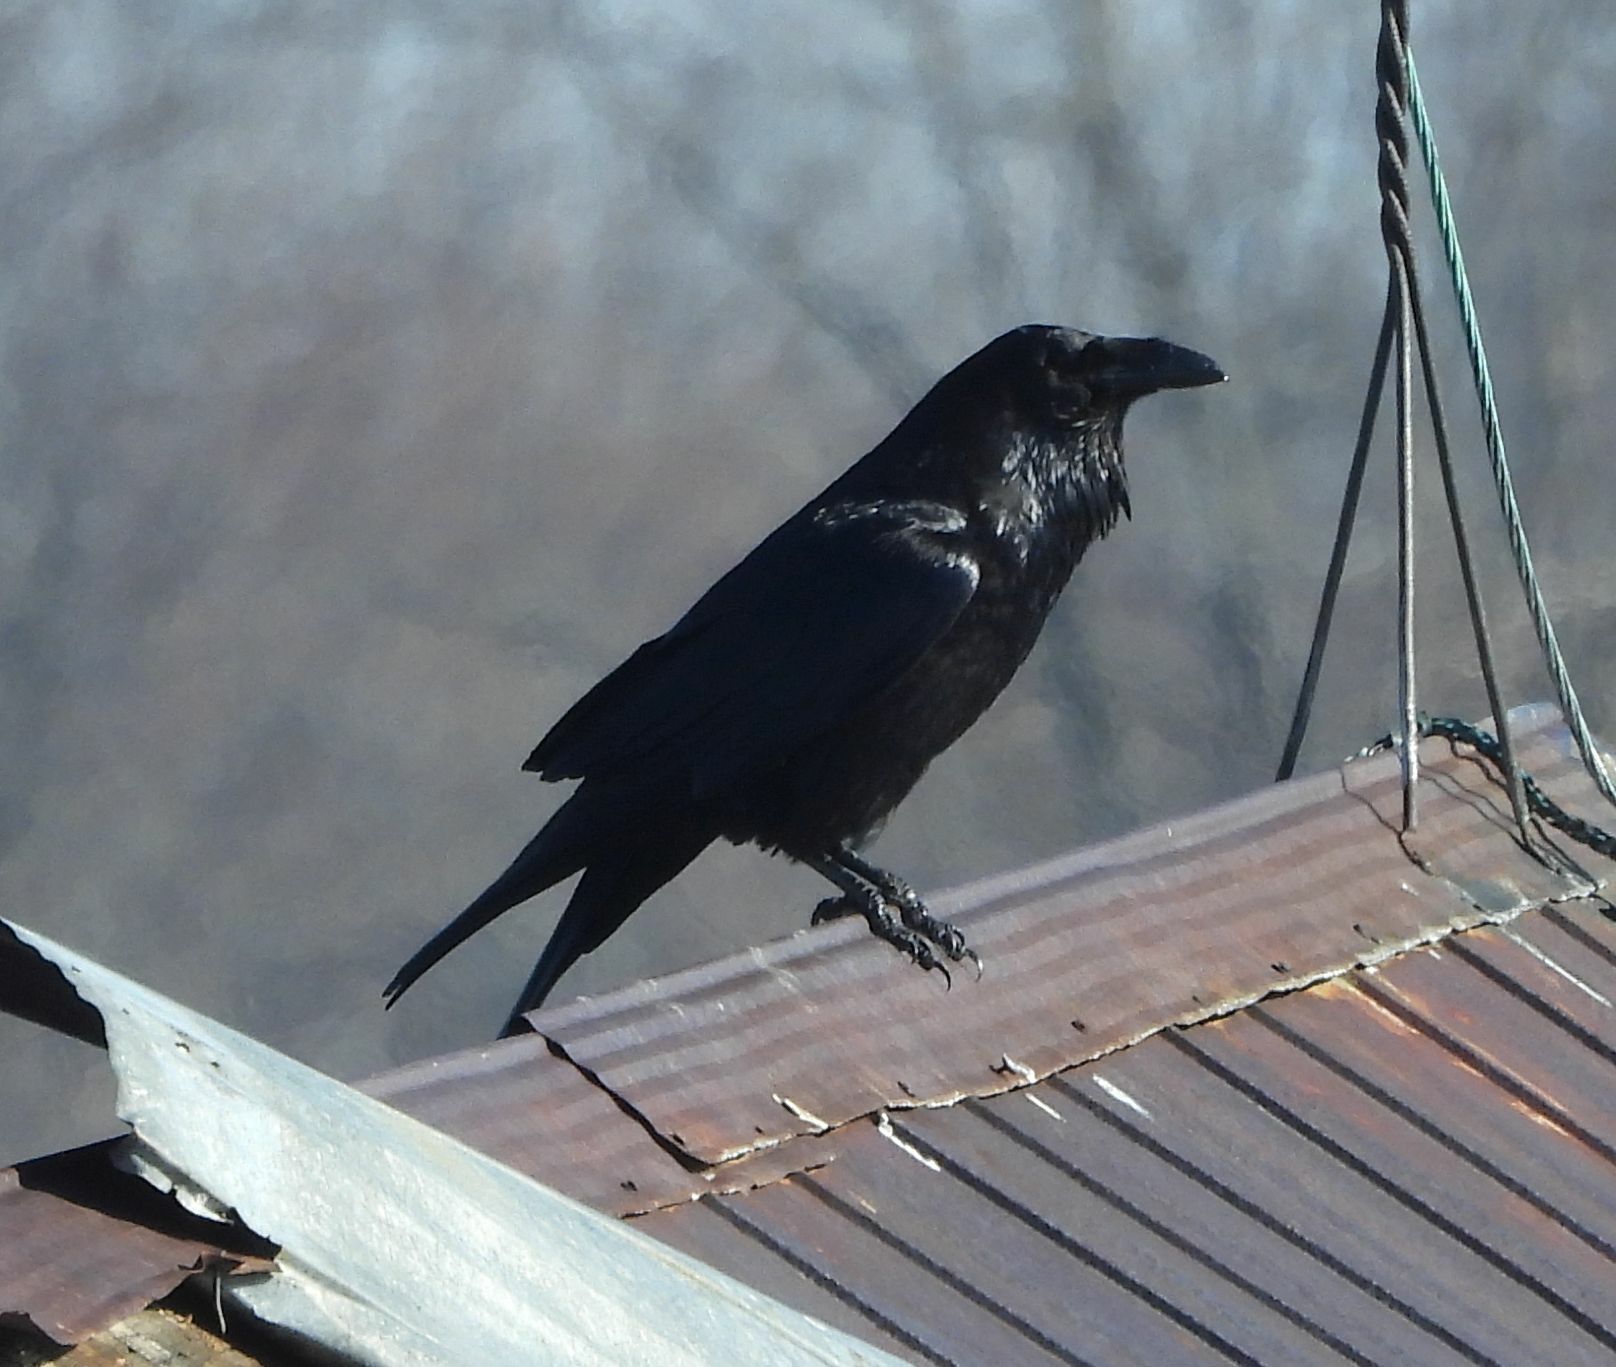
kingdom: Animalia
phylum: Chordata
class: Aves
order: Passeriformes
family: Corvidae
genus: Corvus
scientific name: Corvus corax
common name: Common raven
